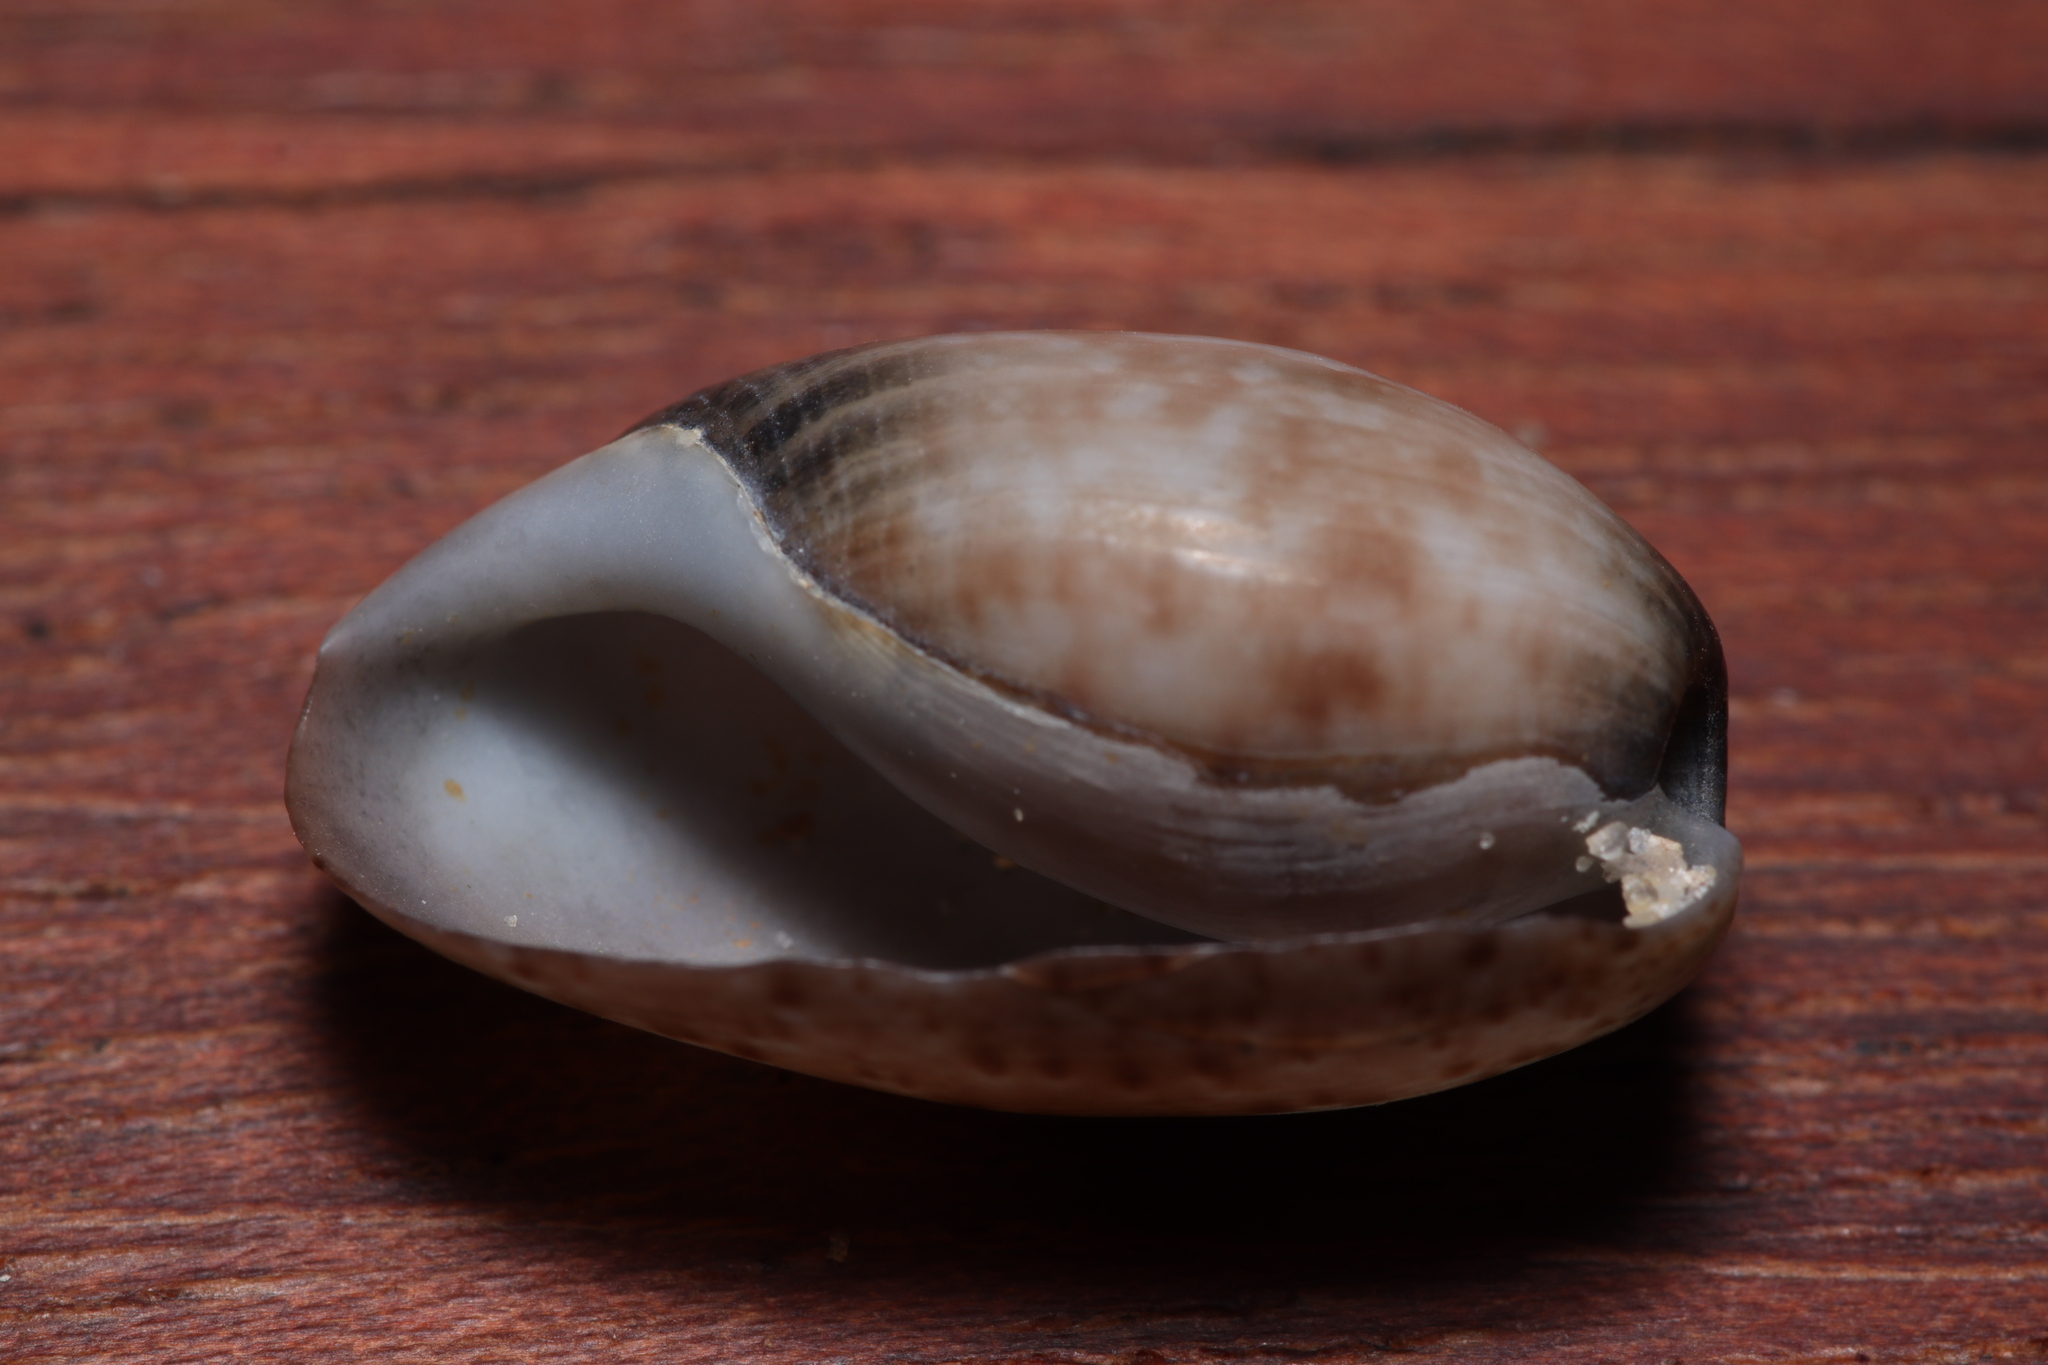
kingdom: Animalia
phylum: Mollusca
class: Gastropoda
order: Cephalaspidea
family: Bullidae
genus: Bulla
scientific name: Bulla occidentalis
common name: Common west-indian bubble
